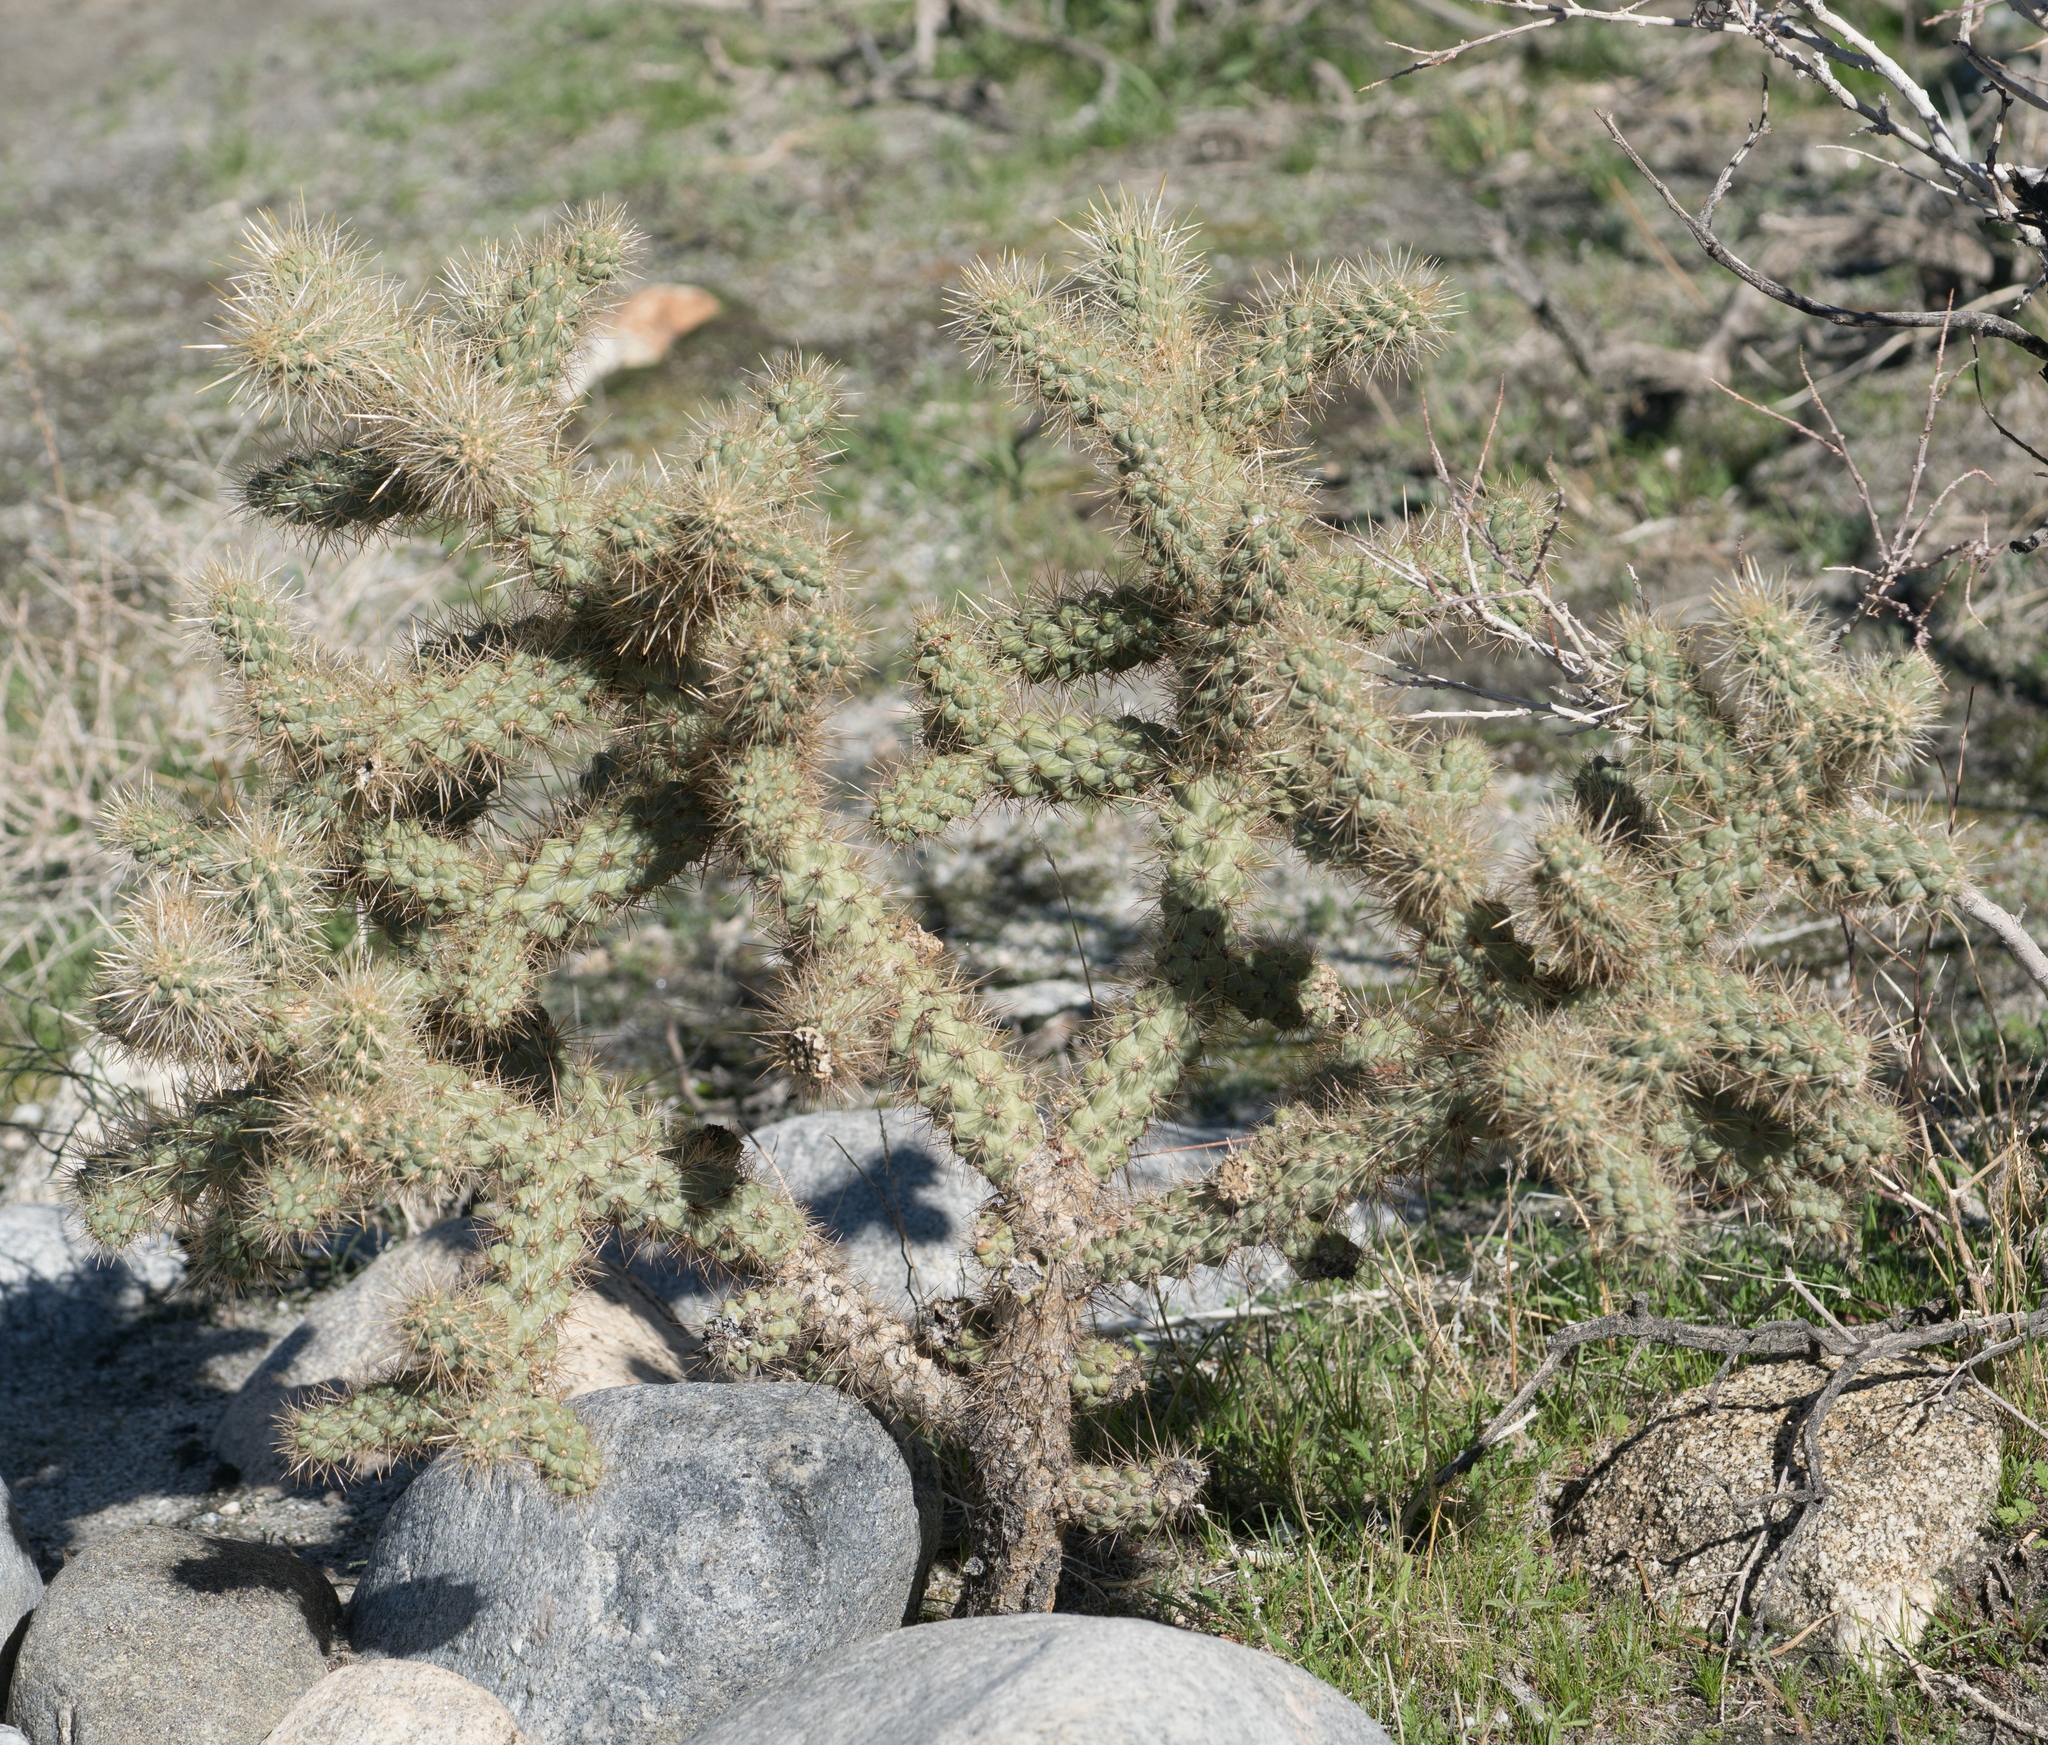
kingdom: Plantae
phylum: Tracheophyta
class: Magnoliopsida
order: Caryophyllales
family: Cactaceae
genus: Cylindropuntia
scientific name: Cylindropuntia echinocarpa
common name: Ground cholla
